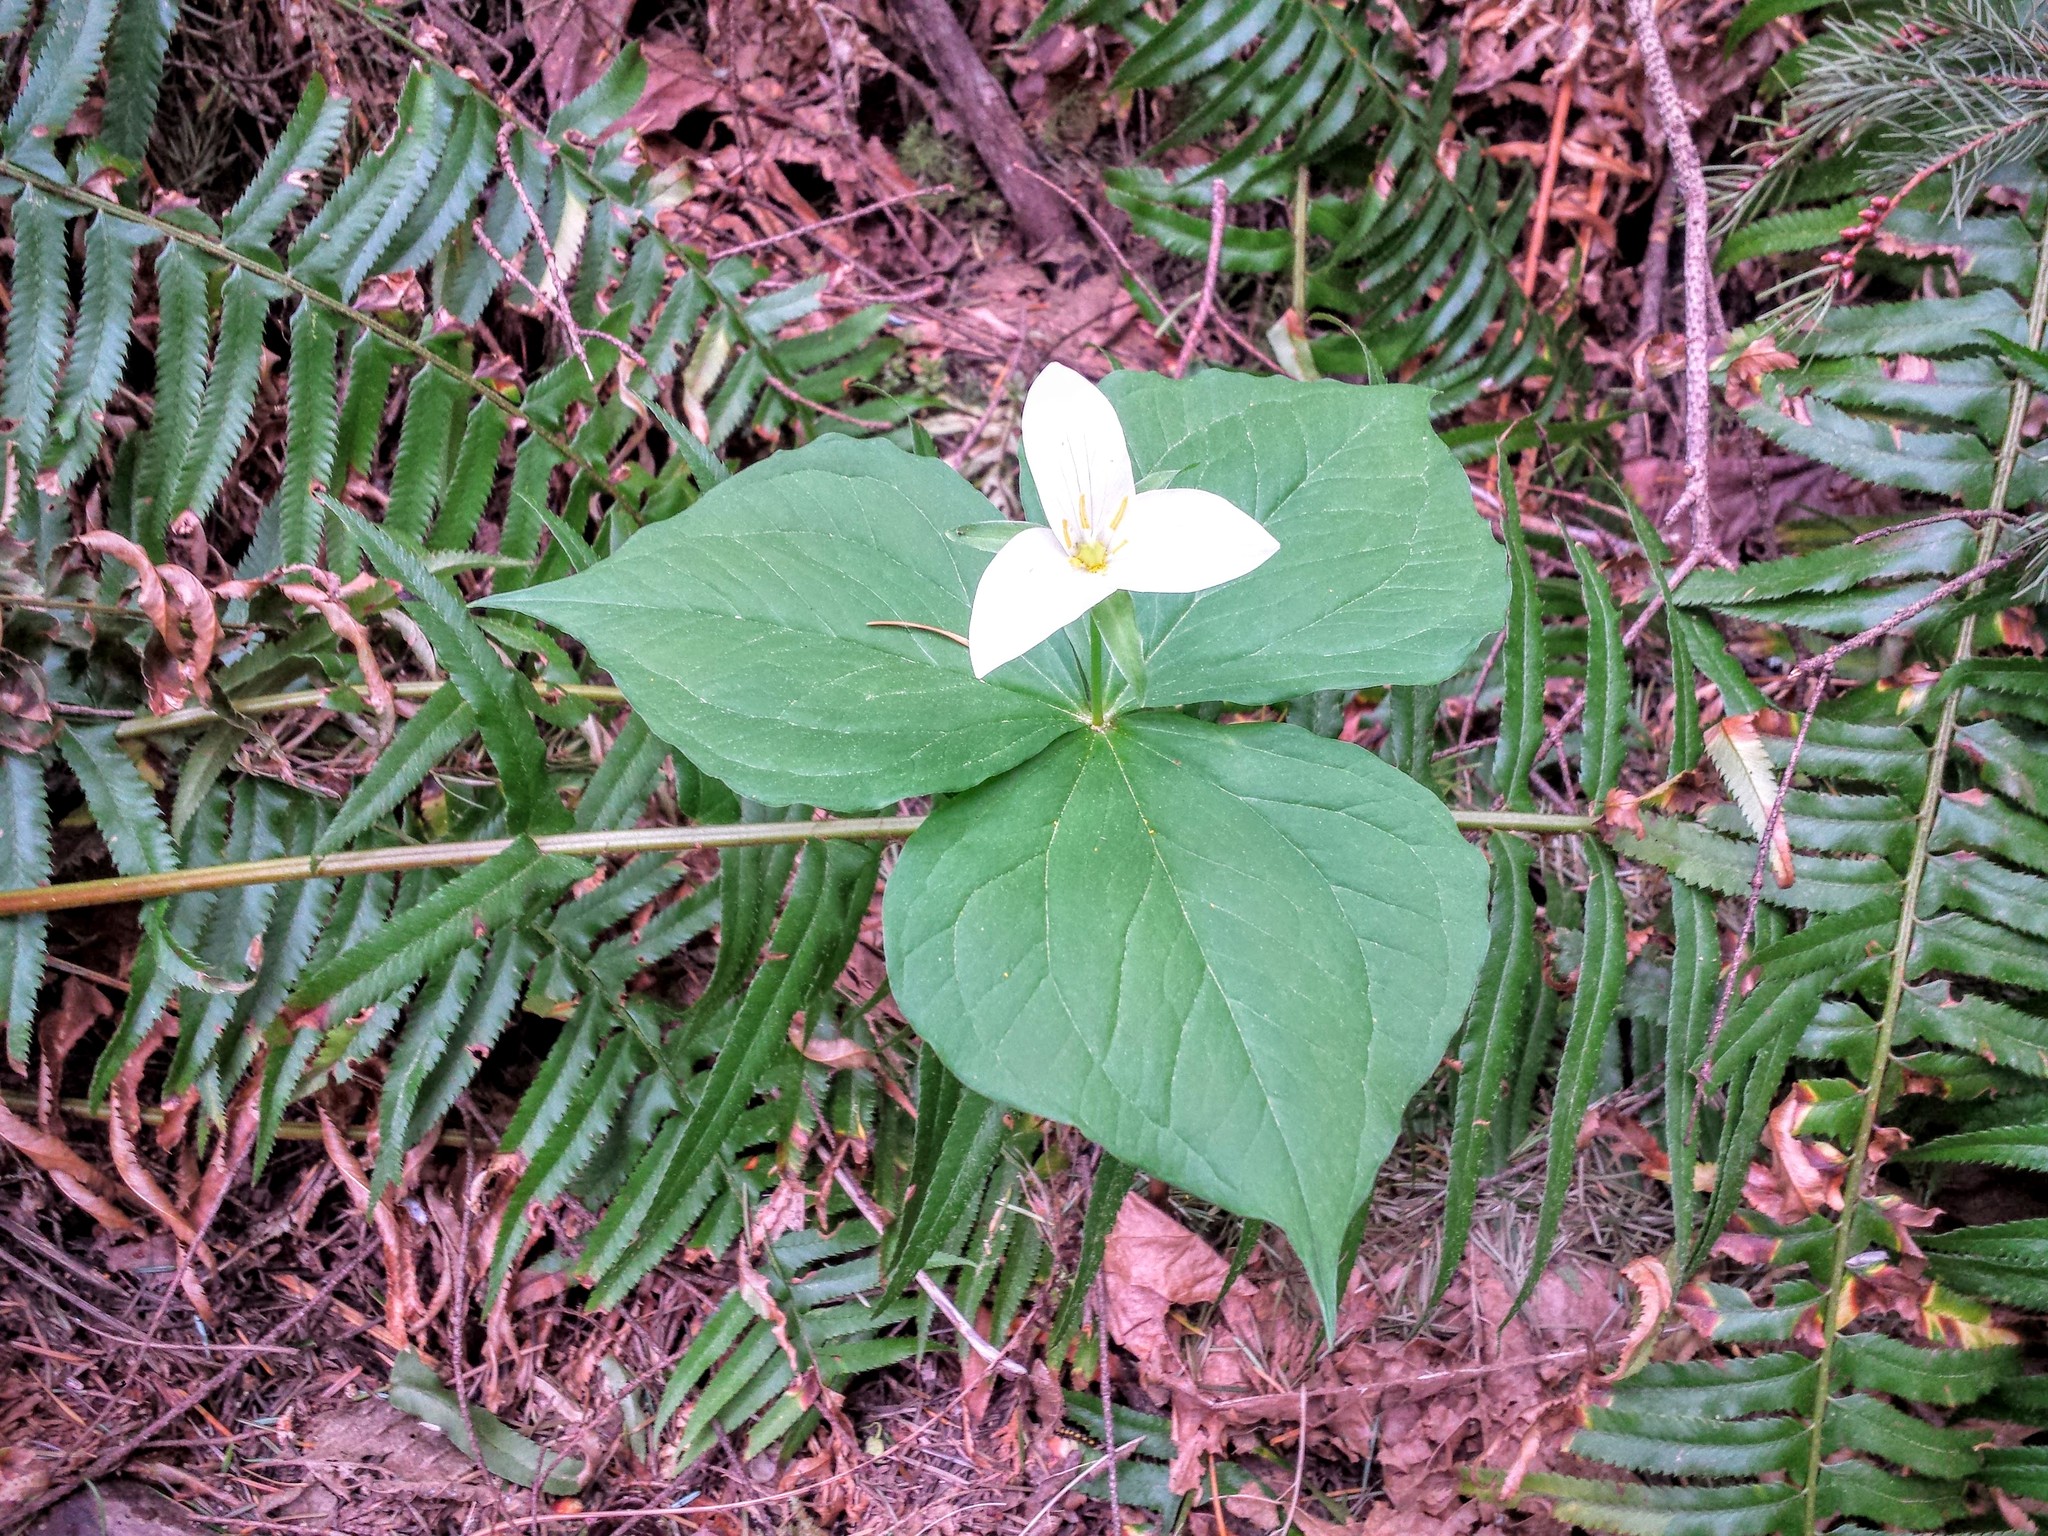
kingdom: Plantae
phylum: Tracheophyta
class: Liliopsida
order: Liliales
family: Melanthiaceae
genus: Trillium
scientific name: Trillium ovatum
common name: Pacific trillium
